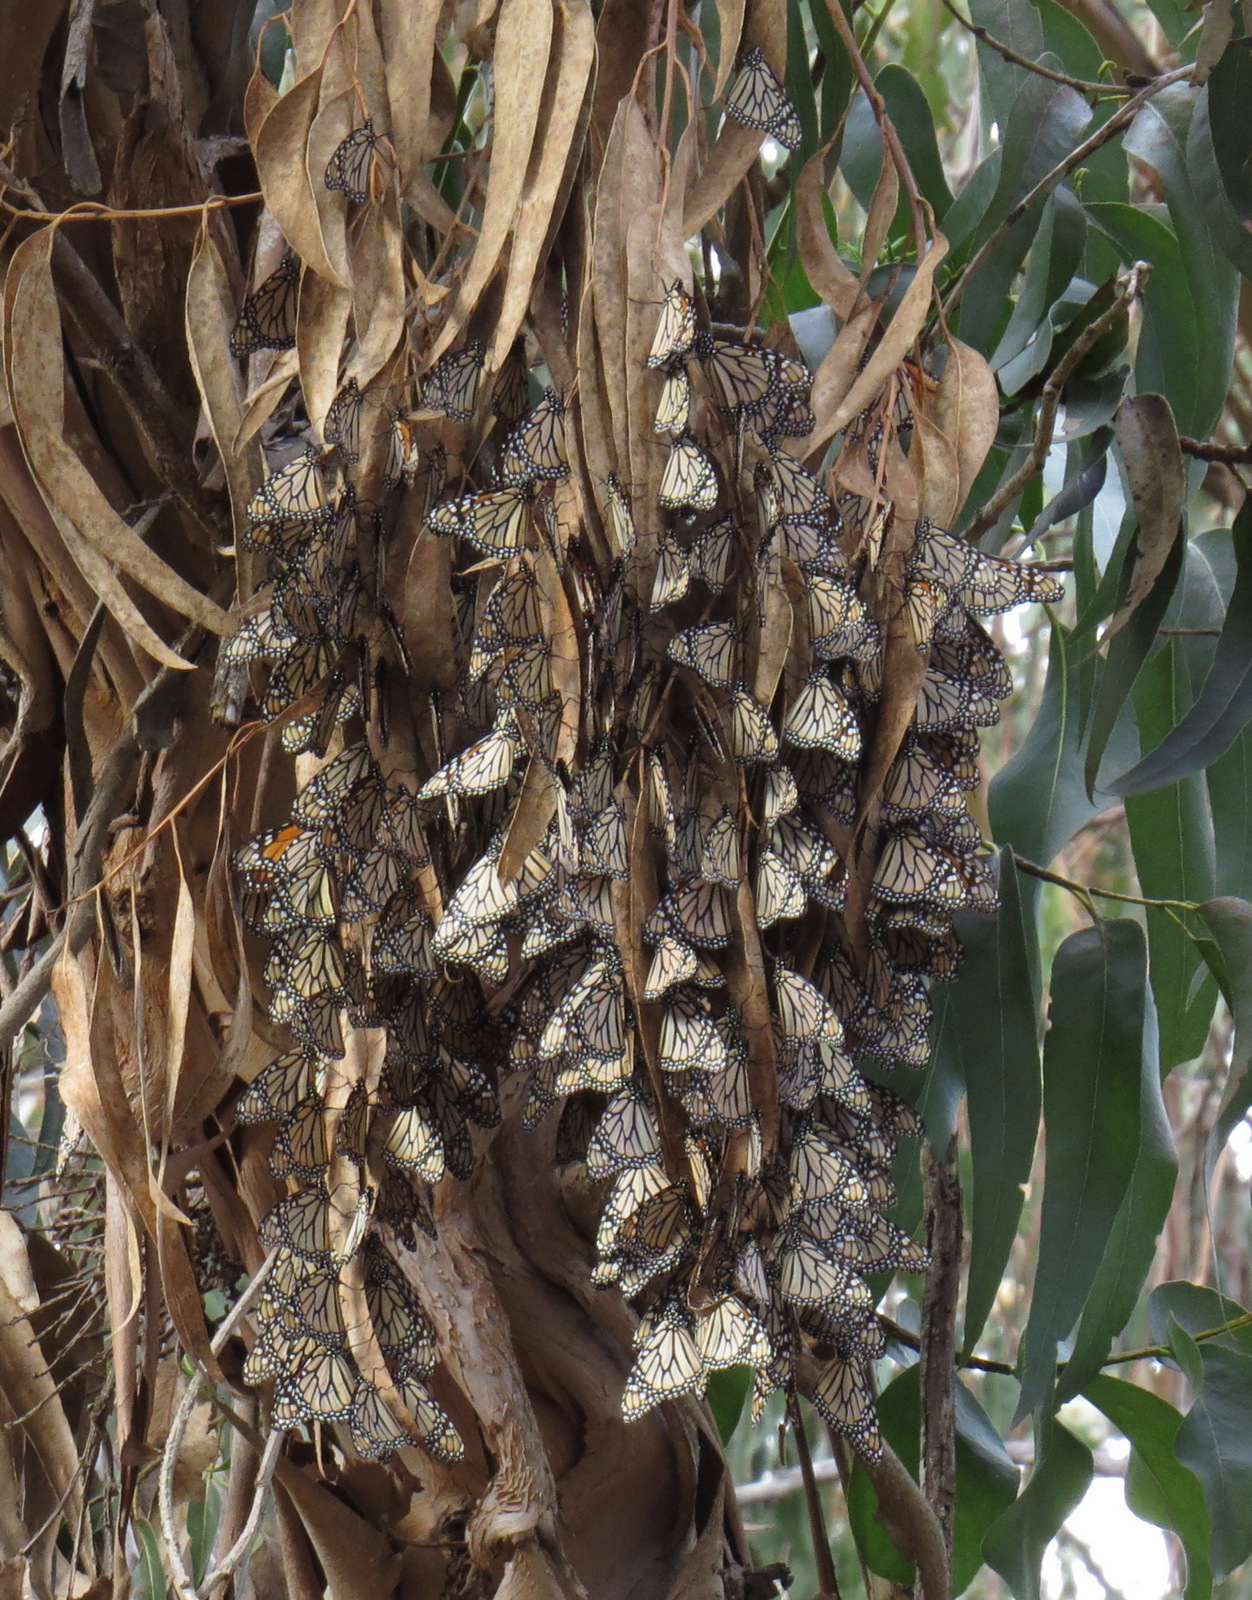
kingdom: Animalia
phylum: Arthropoda
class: Insecta
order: Lepidoptera
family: Nymphalidae
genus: Danaus
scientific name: Danaus plexippus
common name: Monarch
